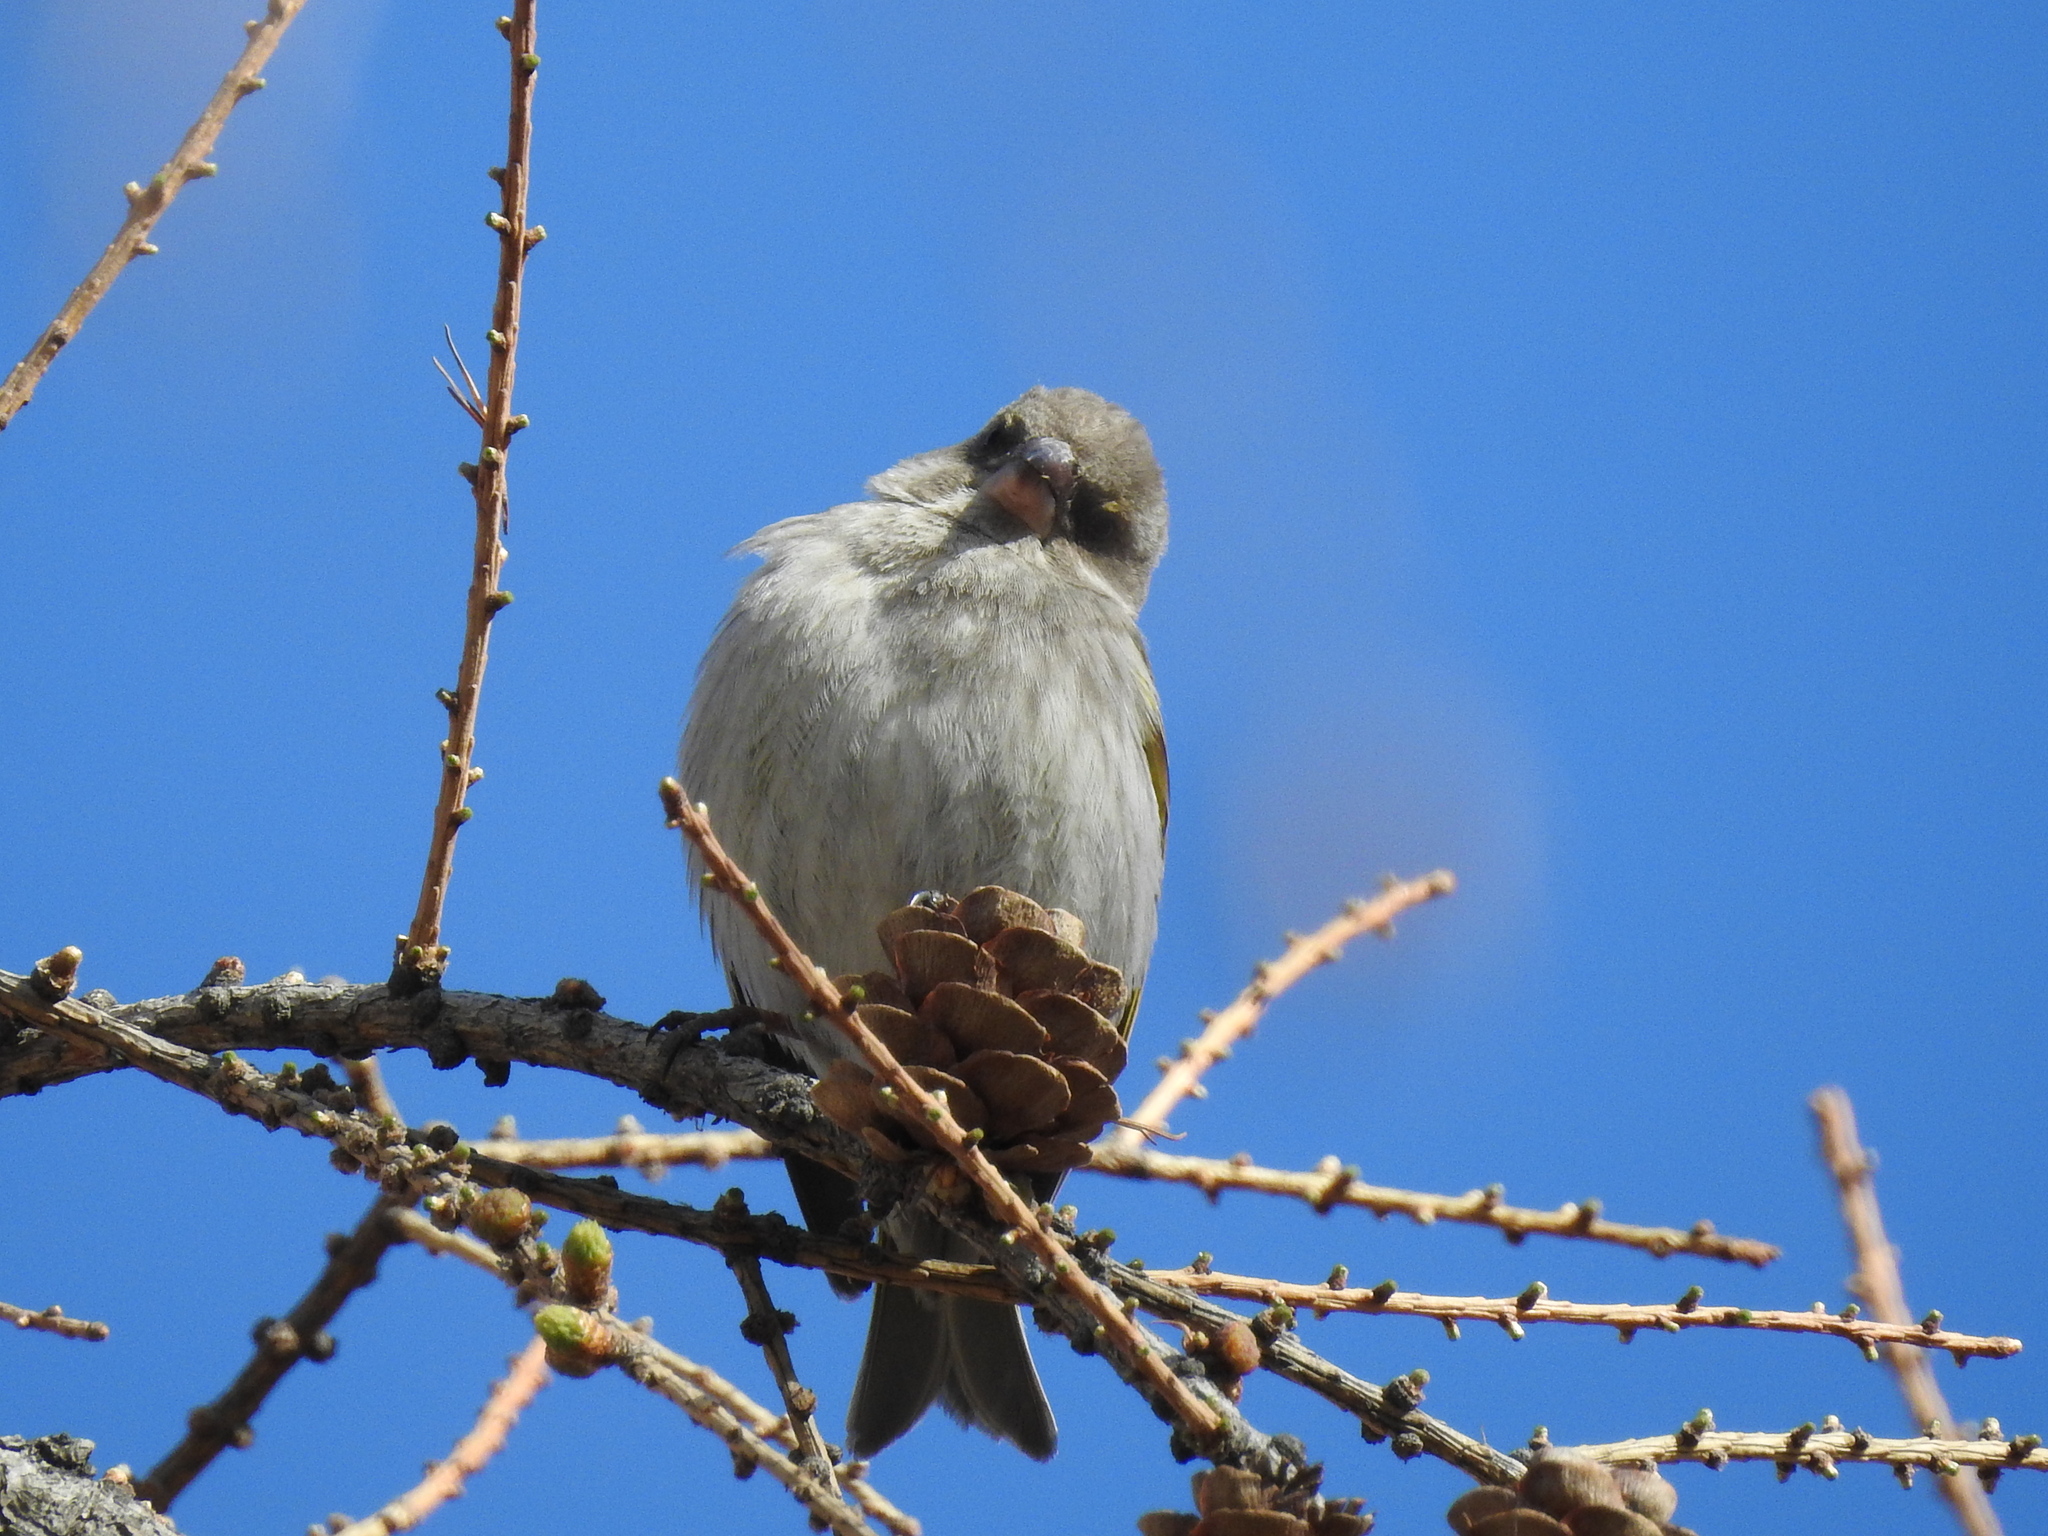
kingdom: Plantae
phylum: Tracheophyta
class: Liliopsida
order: Poales
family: Poaceae
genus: Chloris
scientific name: Chloris chloris
